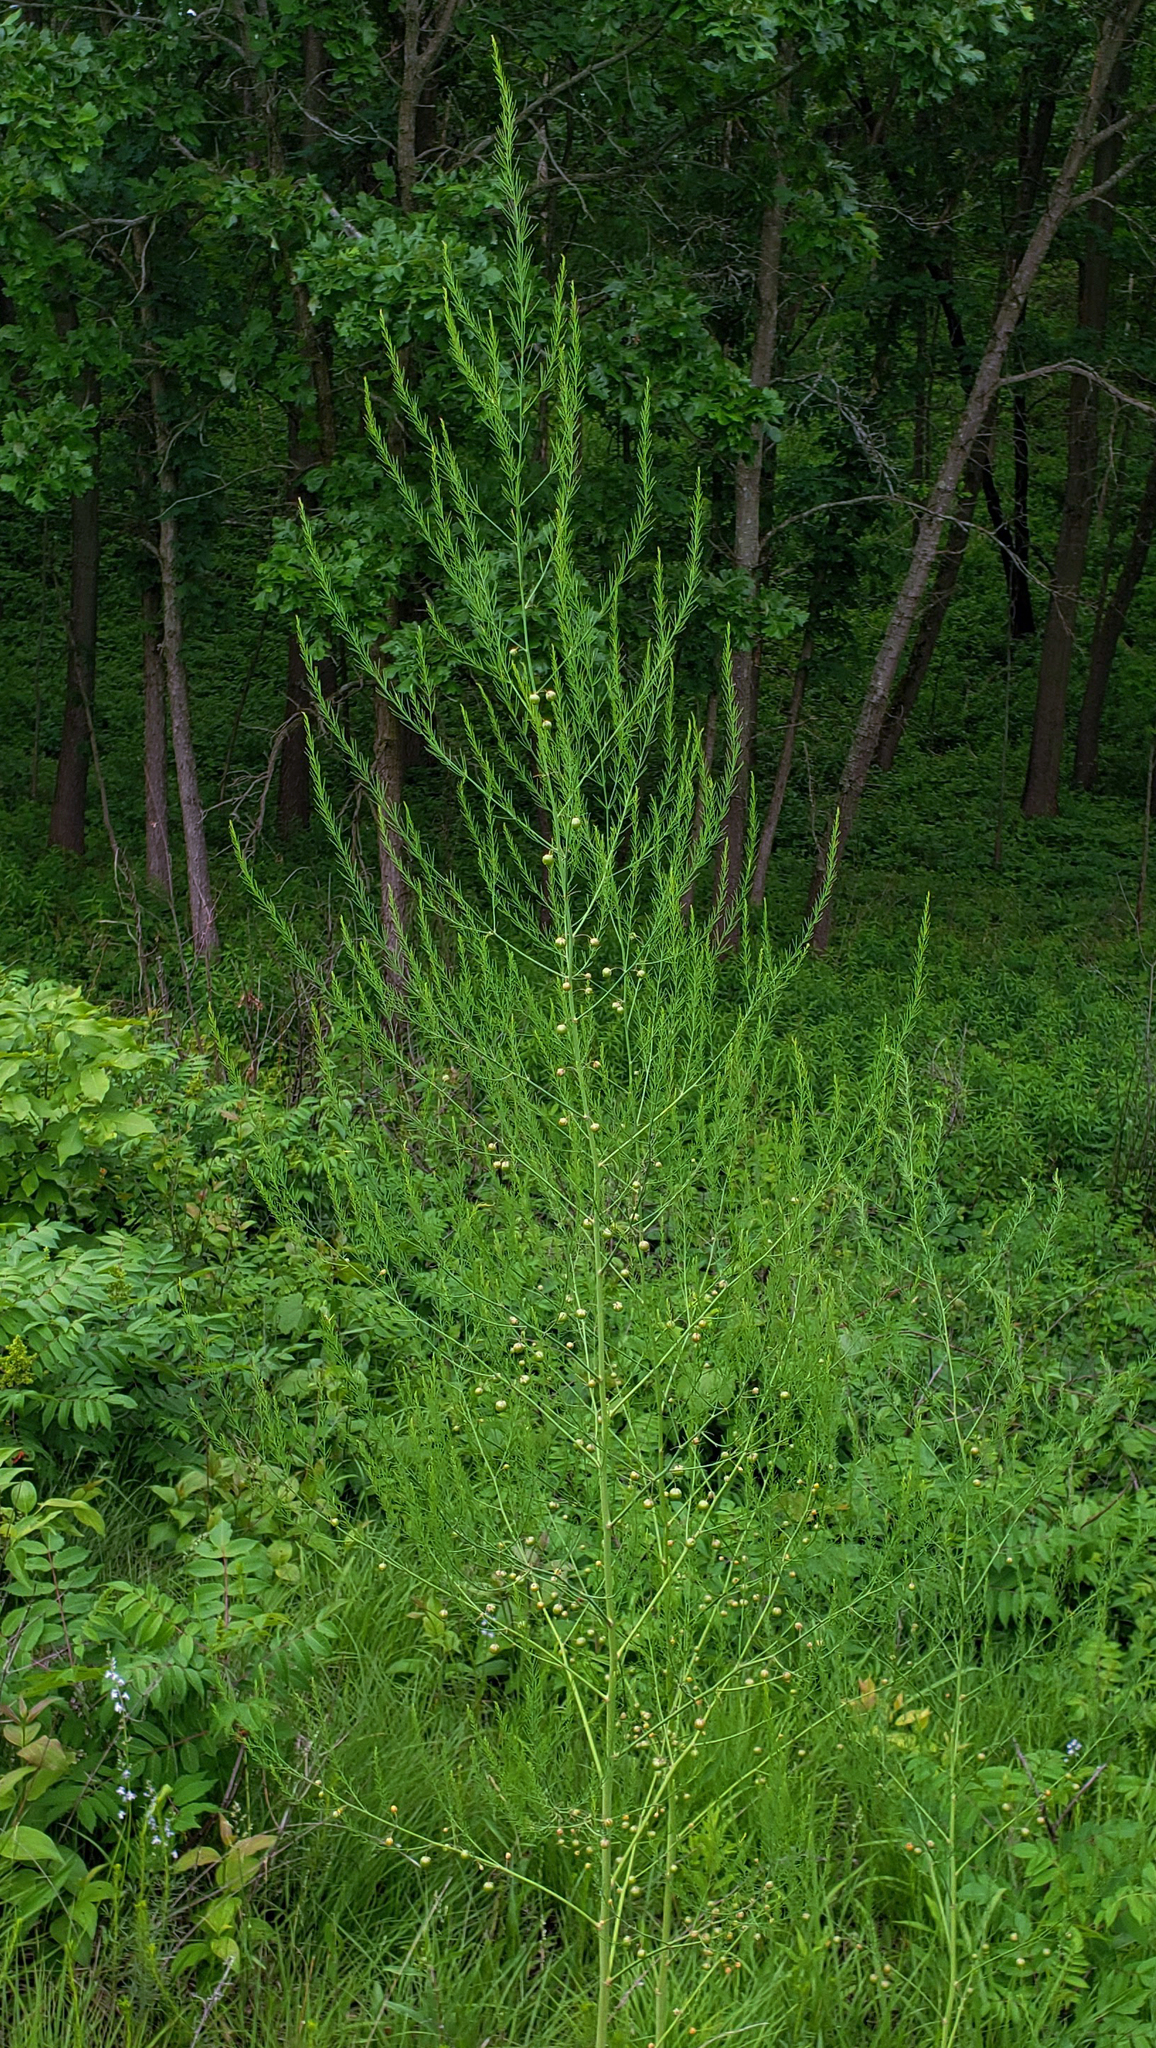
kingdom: Plantae
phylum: Tracheophyta
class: Liliopsida
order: Asparagales
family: Asparagaceae
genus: Asparagus
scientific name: Asparagus officinalis
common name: Garden asparagus
